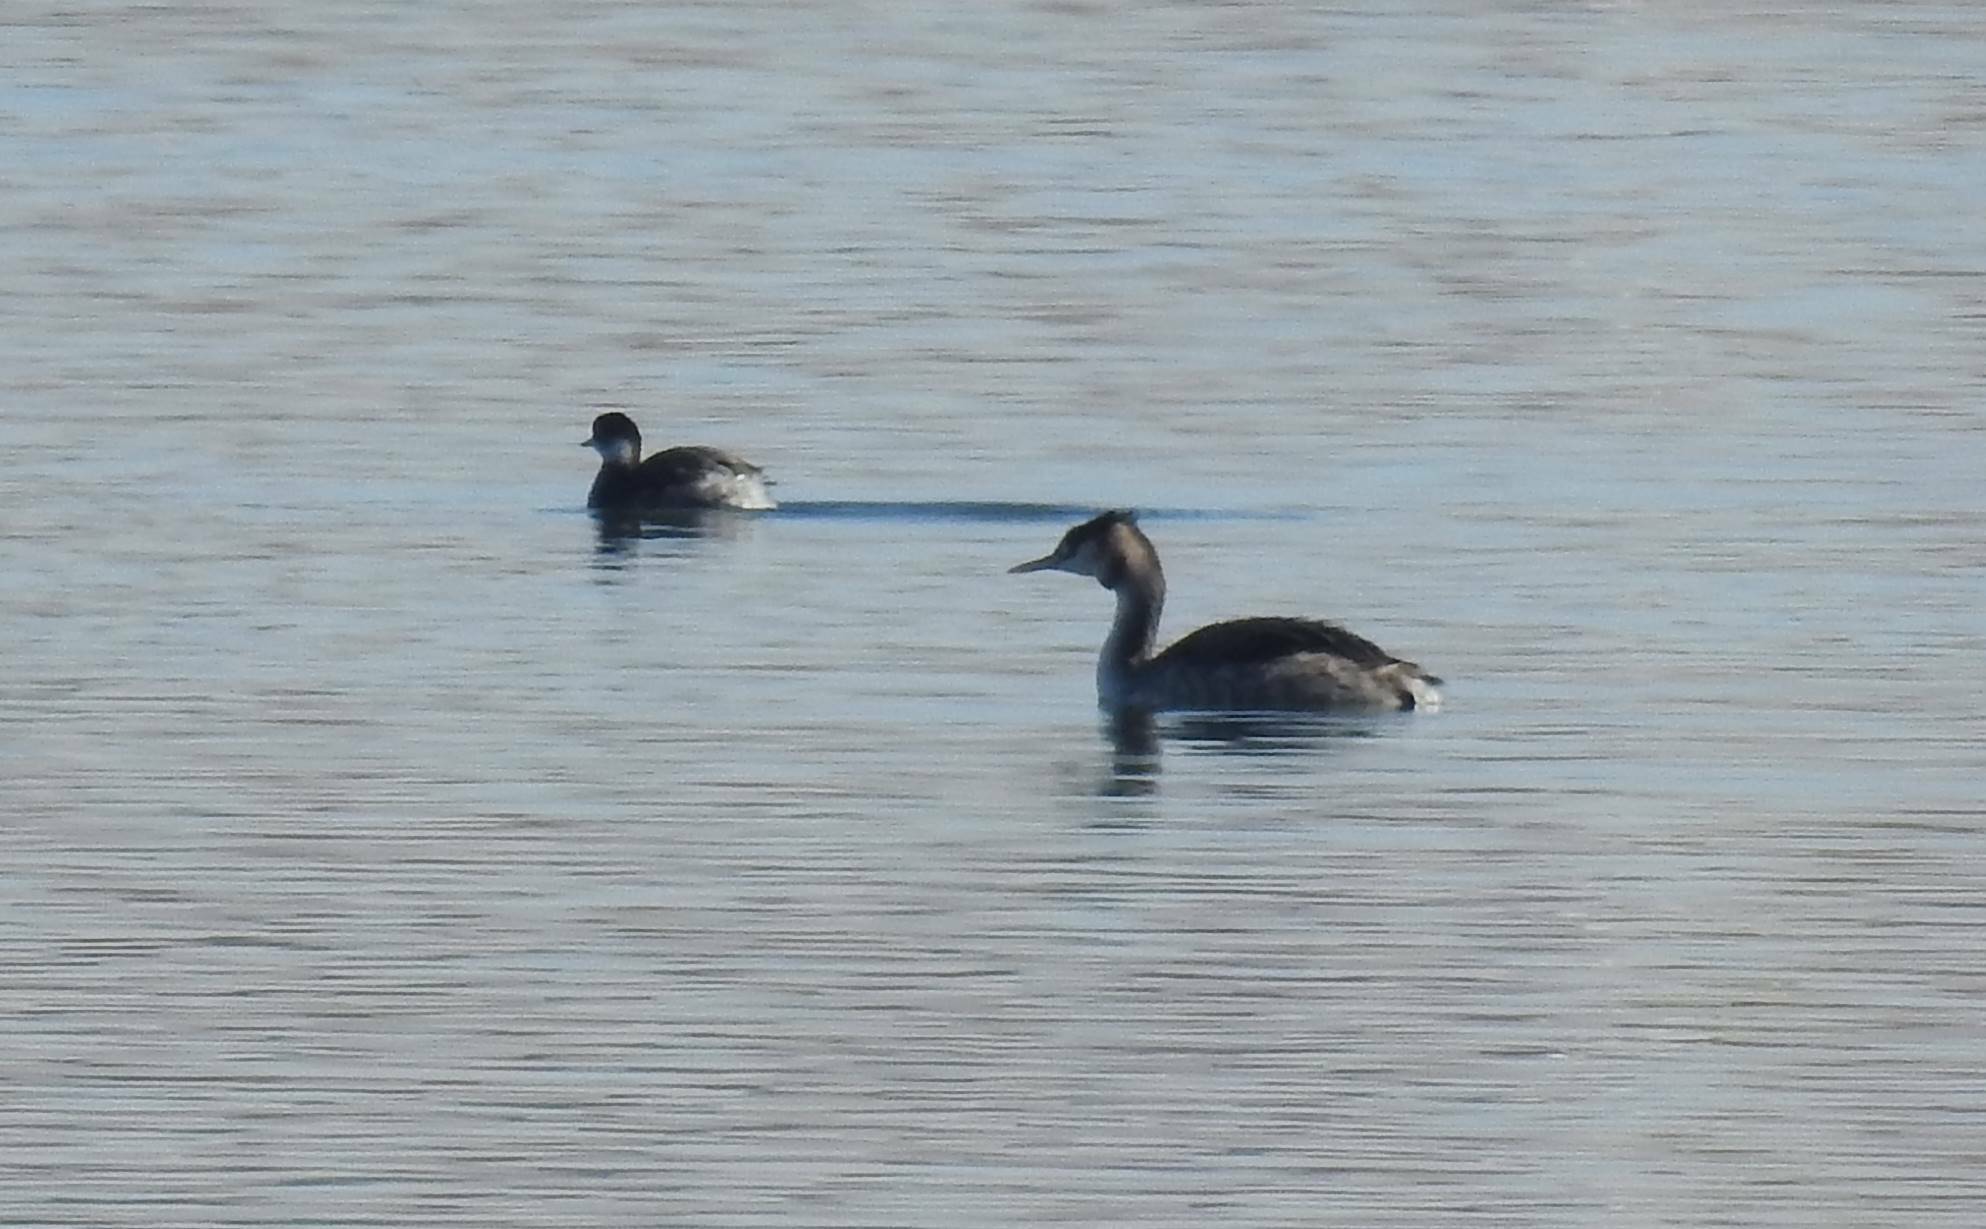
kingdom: Animalia
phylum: Chordata
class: Aves
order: Podicipediformes
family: Podicipedidae
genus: Podiceps
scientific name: Podiceps cristatus
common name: Great crested grebe
